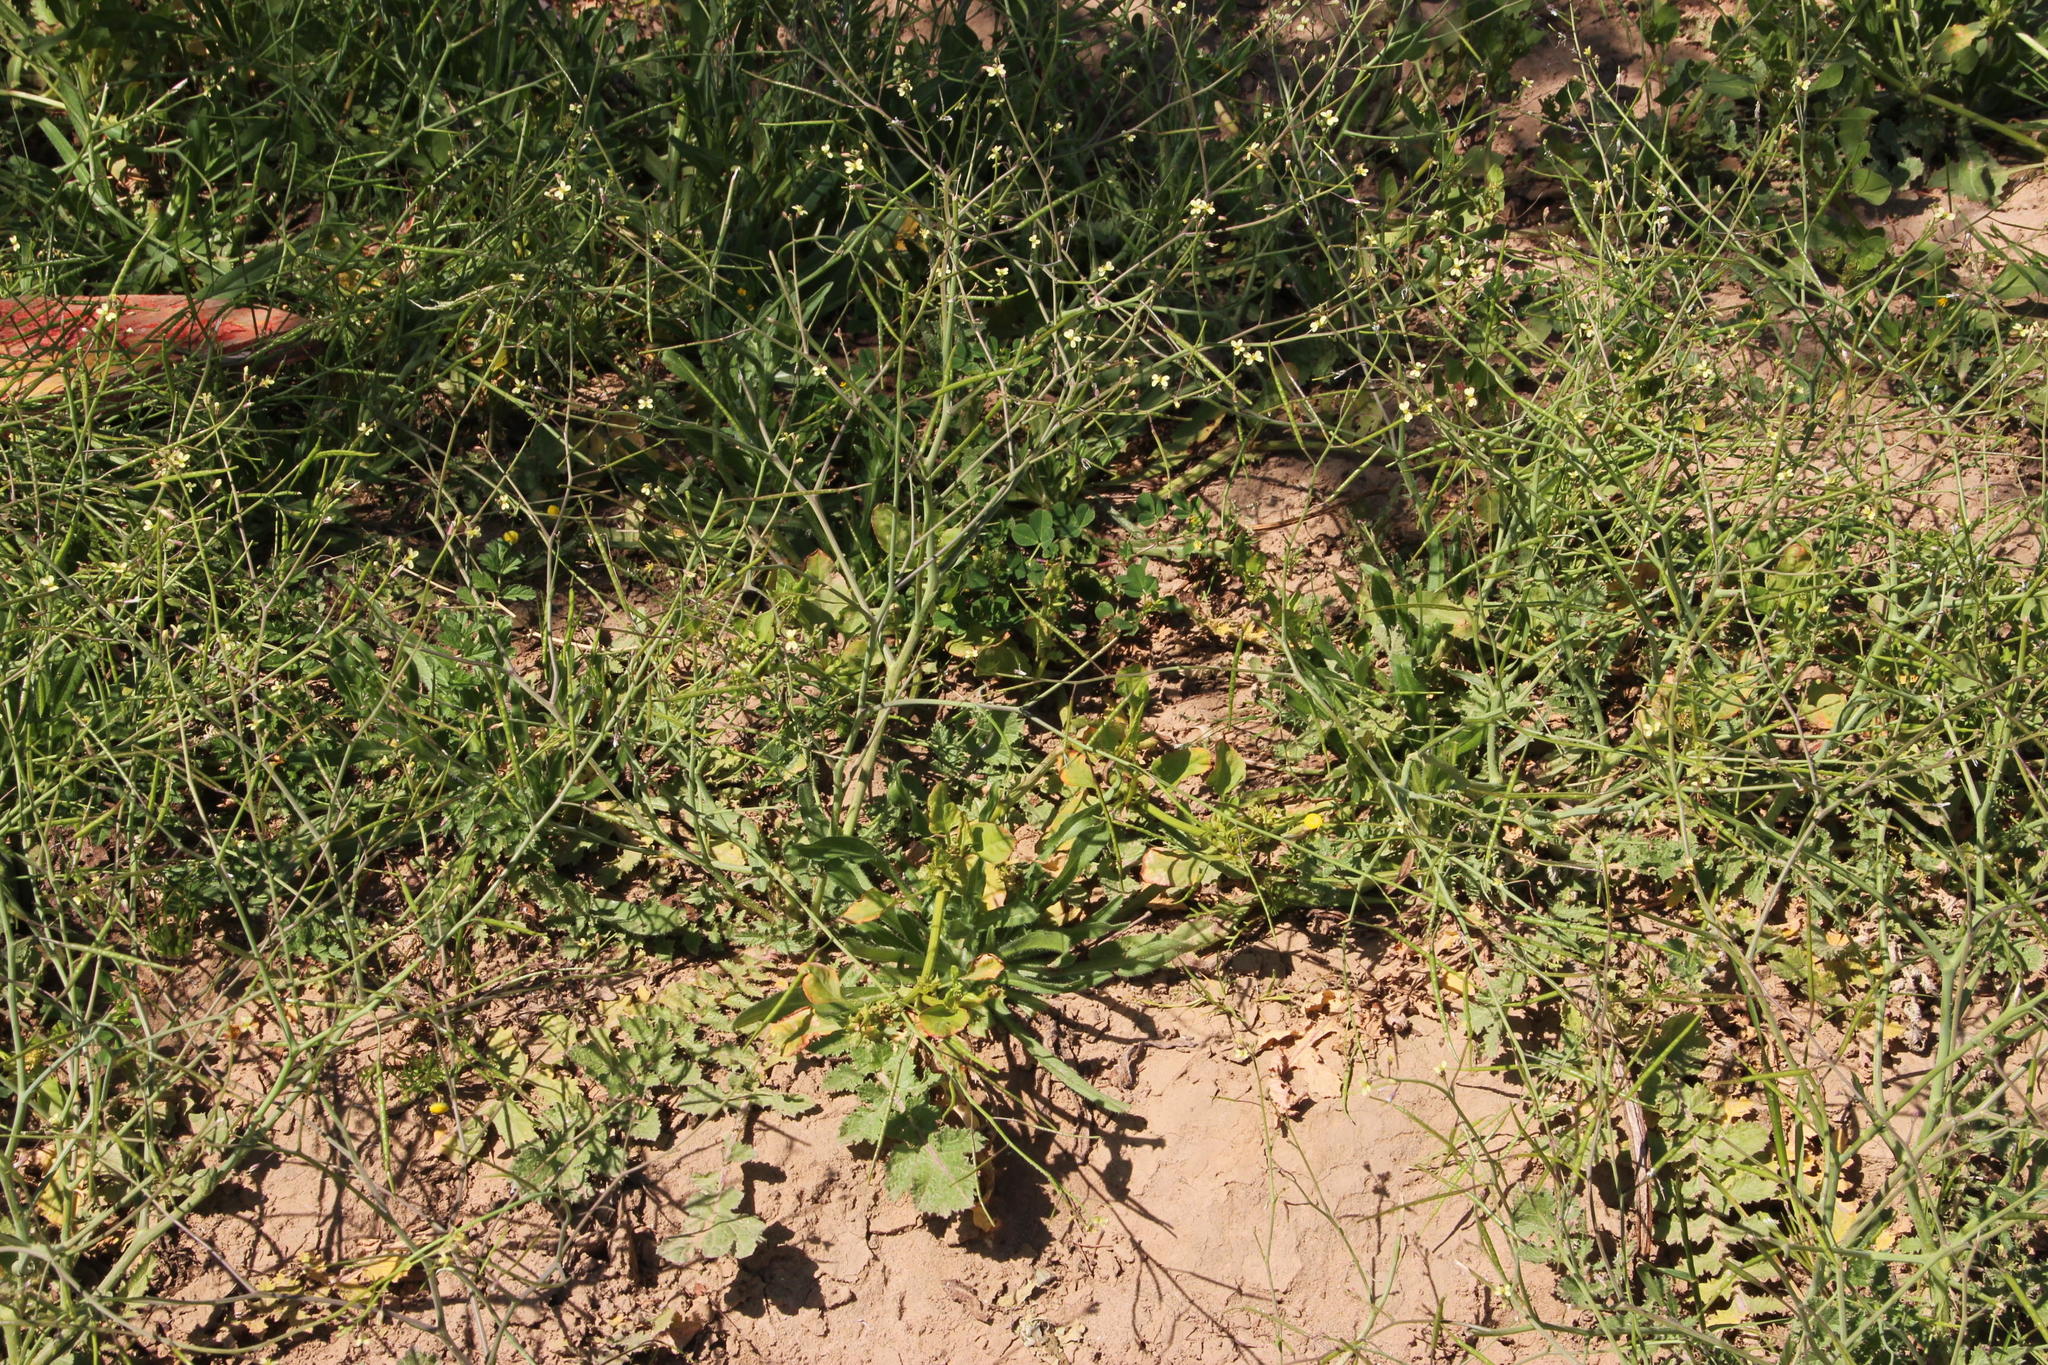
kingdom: Plantae
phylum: Tracheophyta
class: Magnoliopsida
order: Brassicales
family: Brassicaceae
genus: Brassica
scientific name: Brassica tournefortii
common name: Pale cabbage
